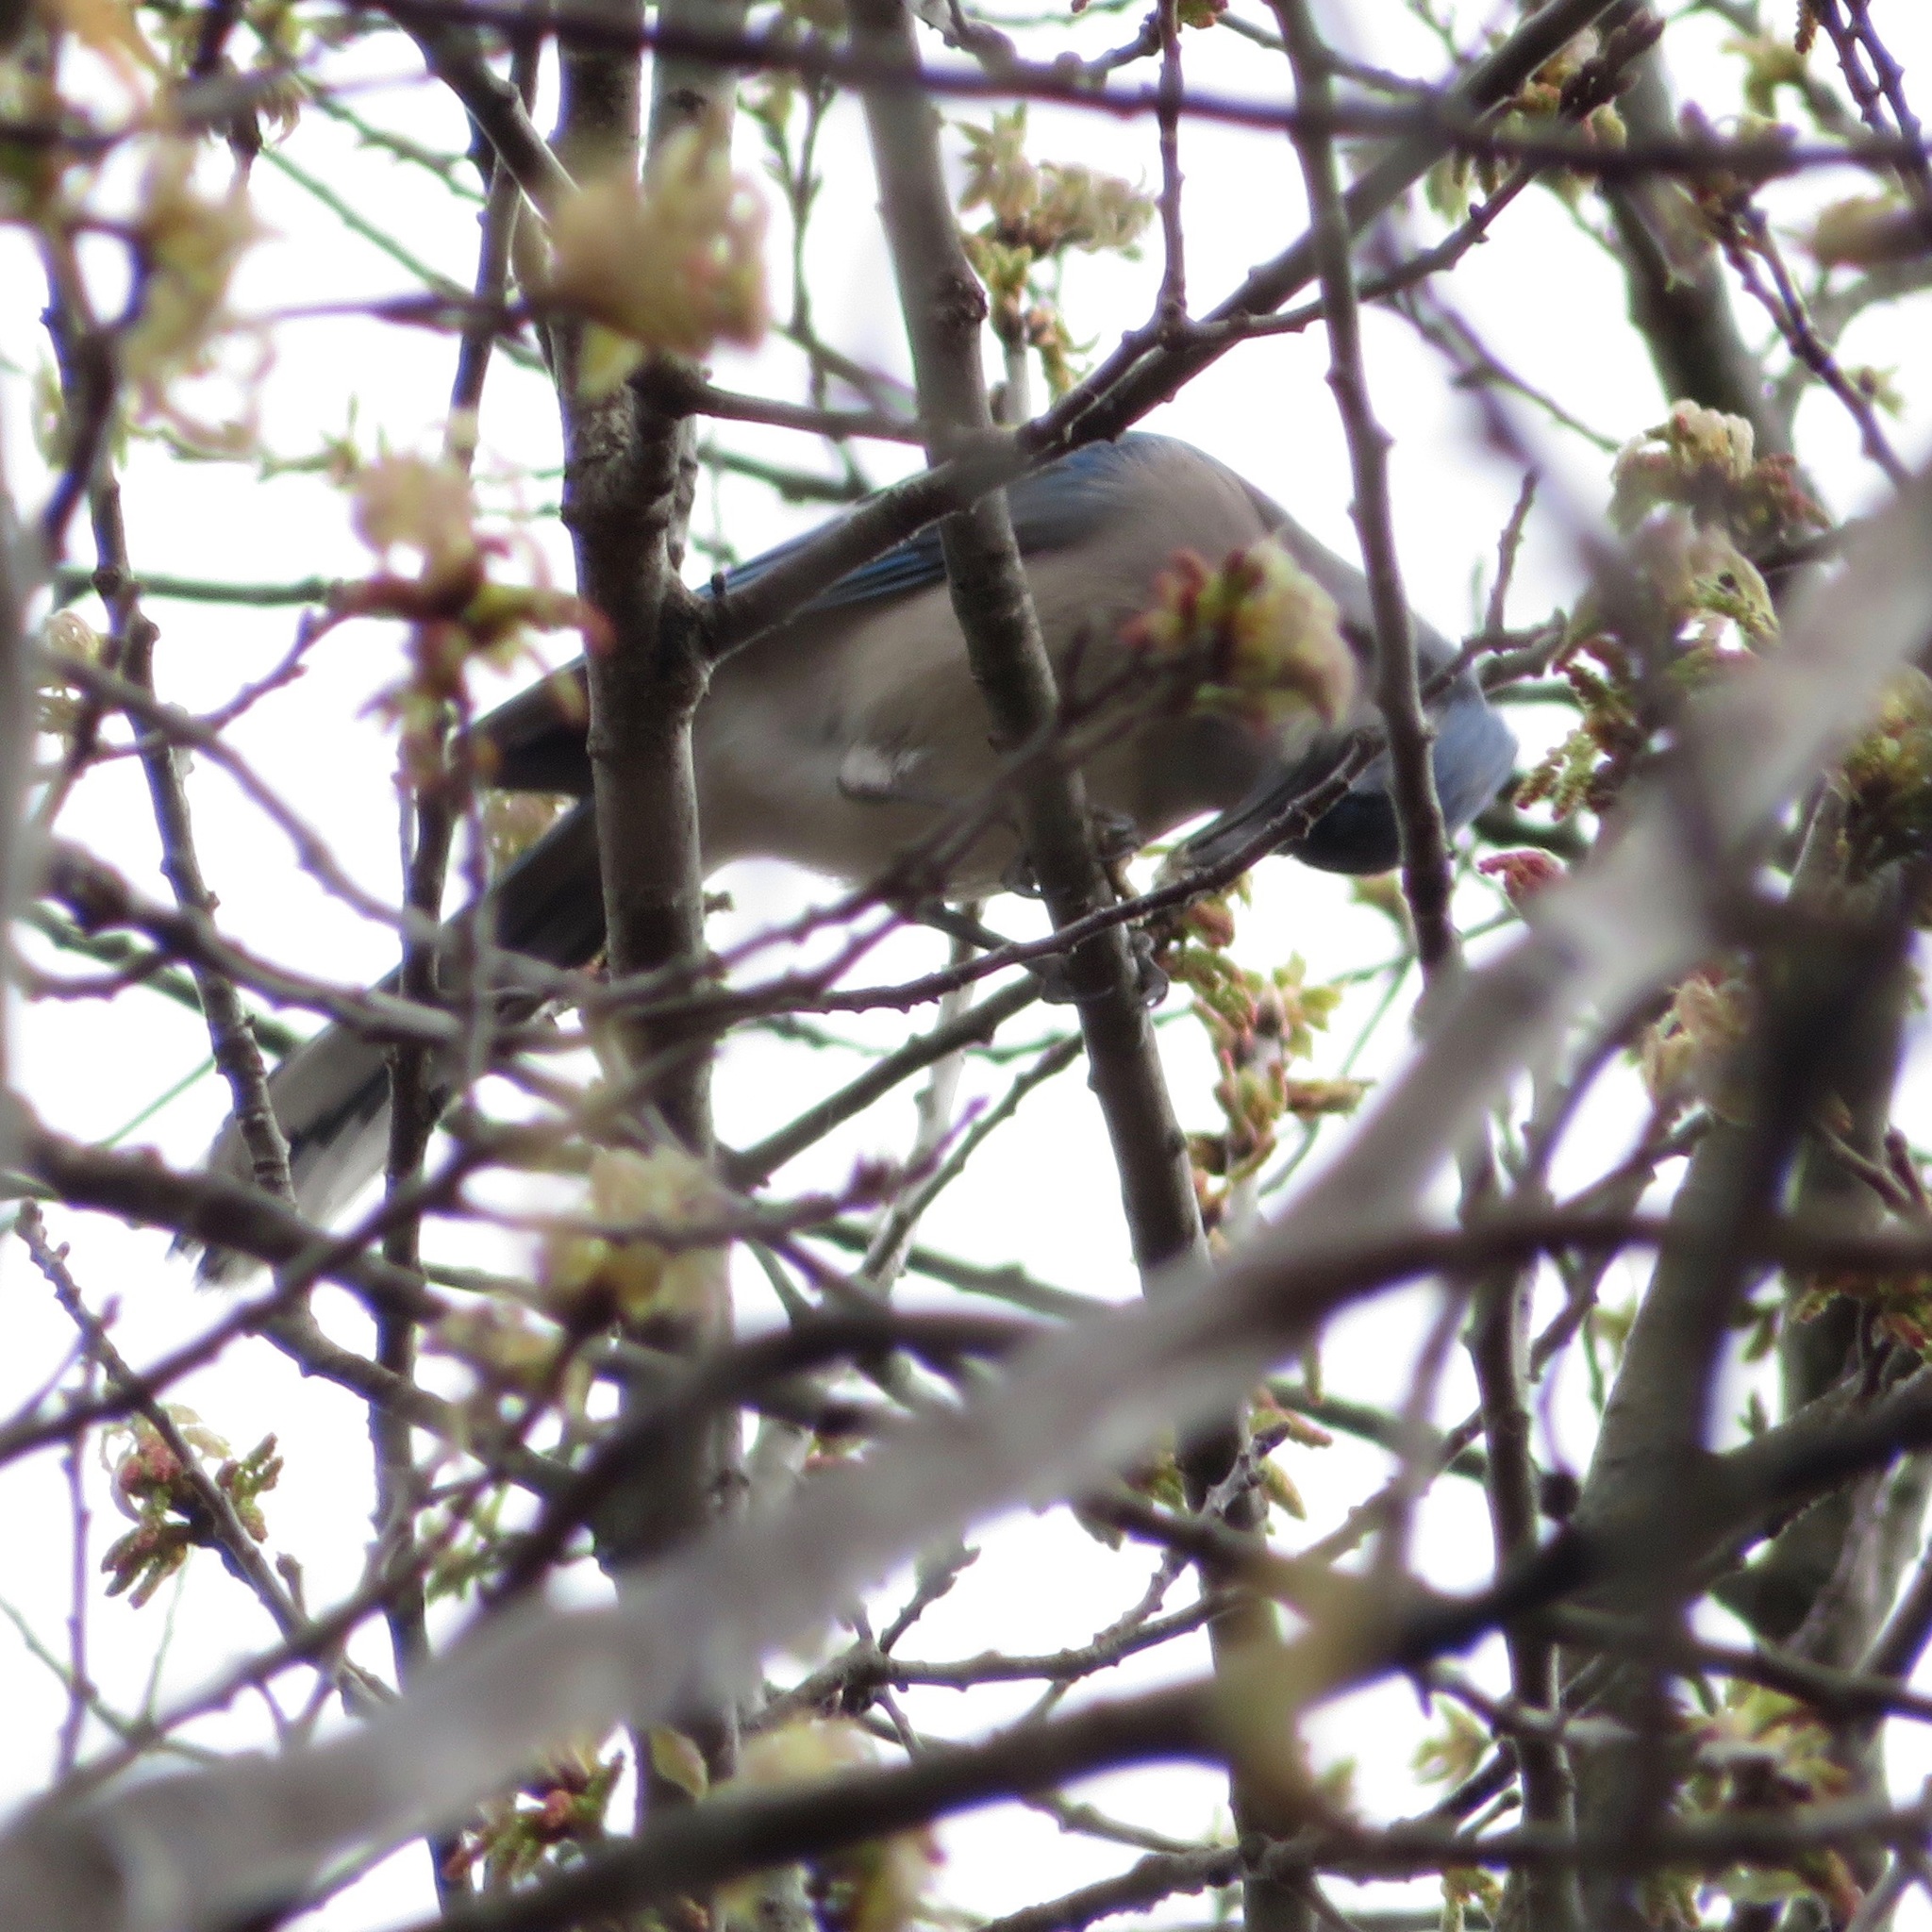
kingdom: Animalia
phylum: Chordata
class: Aves
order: Passeriformes
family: Corvidae
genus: Cyanocitta
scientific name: Cyanocitta cristata
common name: Blue jay
